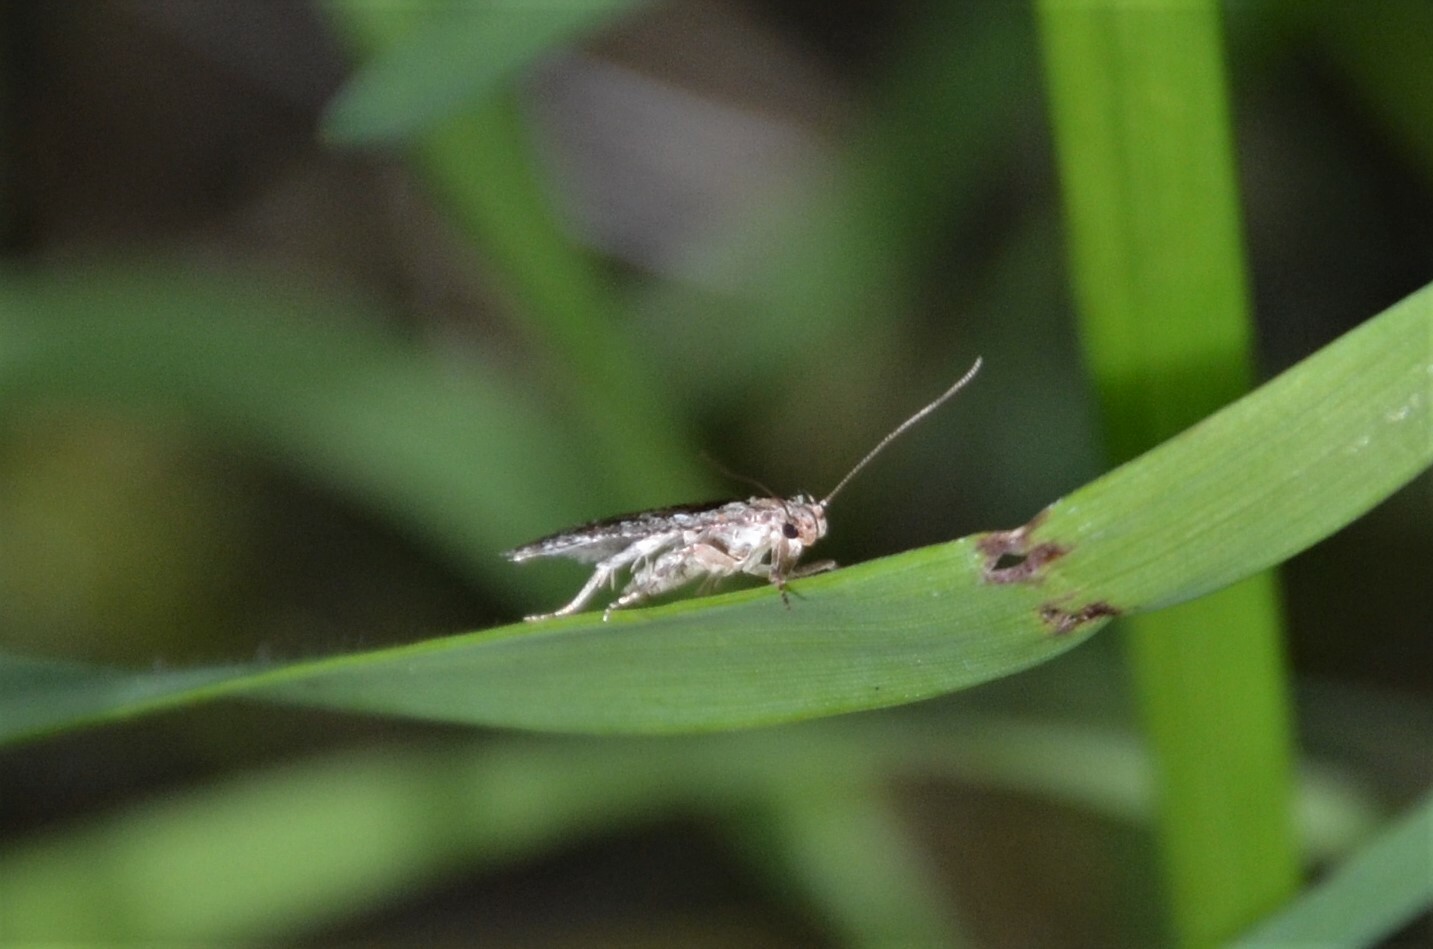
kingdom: Animalia
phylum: Arthropoda
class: Insecta
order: Lepidoptera
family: Depressariidae
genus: Agonopterix
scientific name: Agonopterix hypericella
